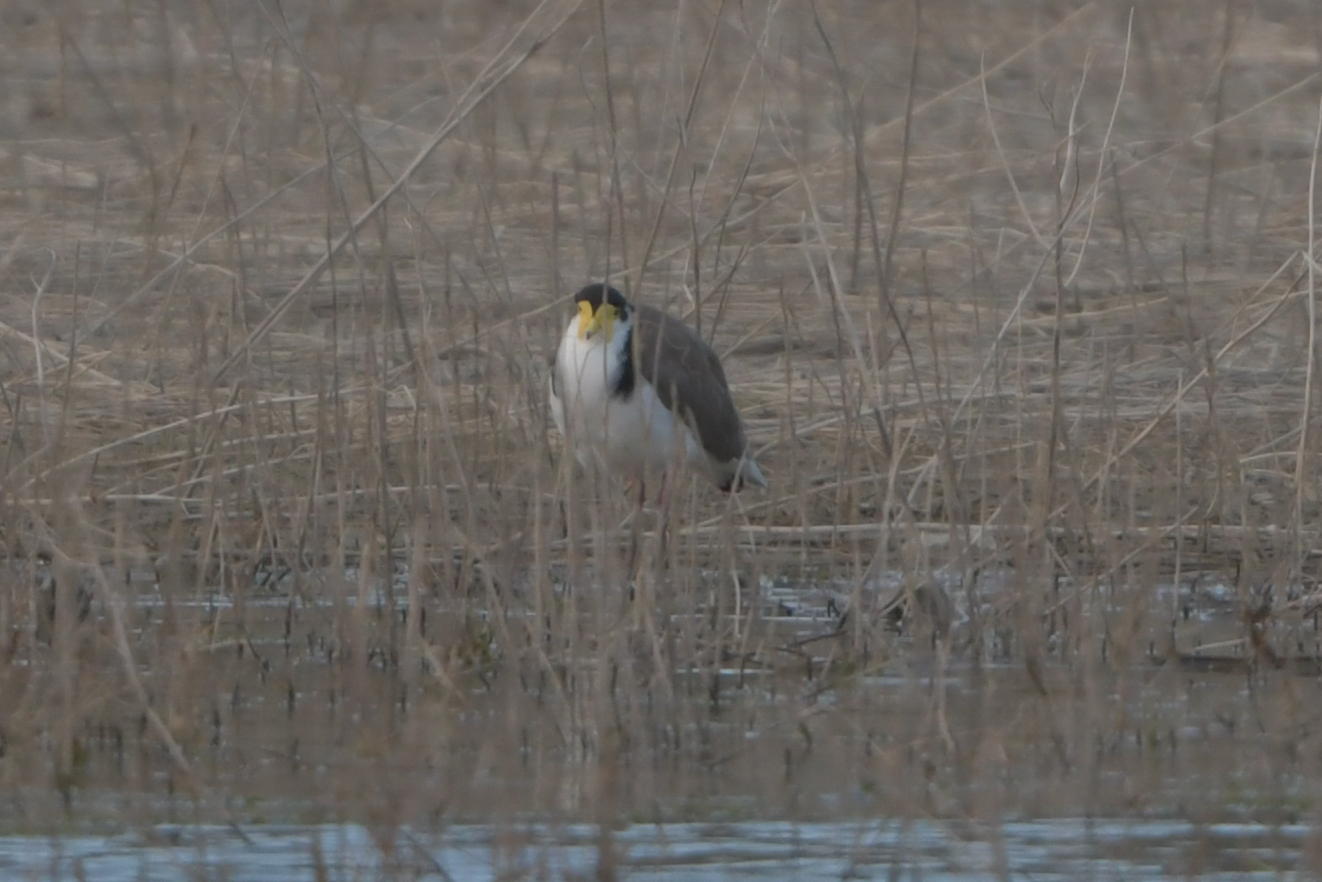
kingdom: Animalia
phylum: Chordata
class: Aves
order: Charadriiformes
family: Charadriidae
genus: Vanellus
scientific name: Vanellus miles
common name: Masked lapwing
